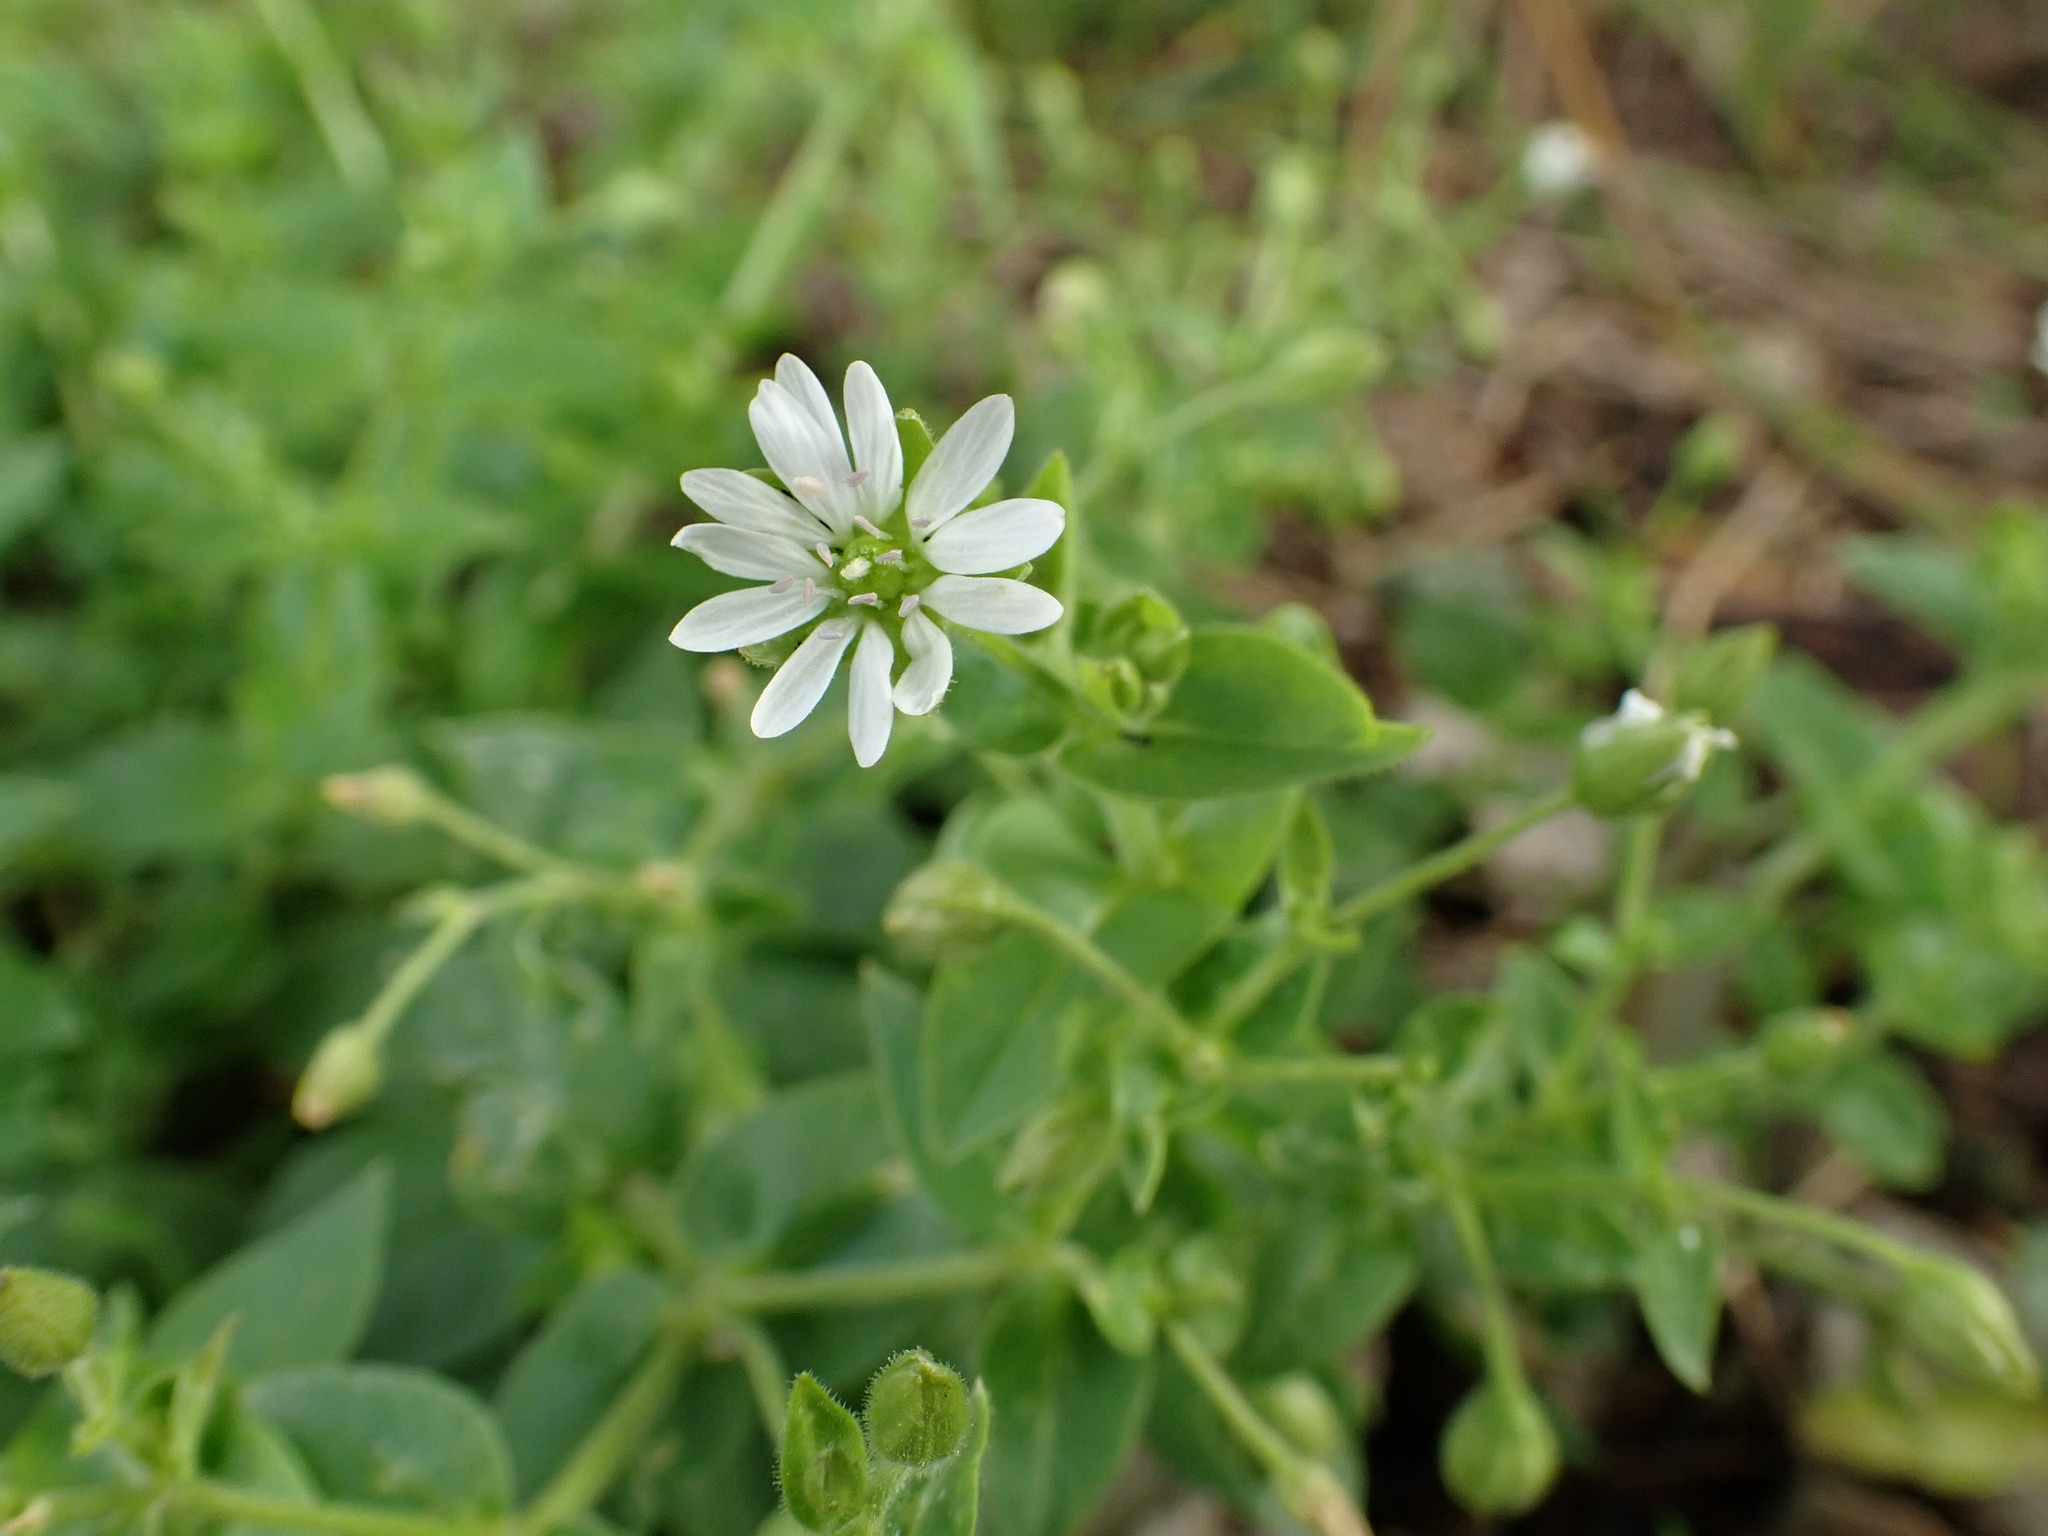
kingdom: Plantae
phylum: Tracheophyta
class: Magnoliopsida
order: Caryophyllales
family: Caryophyllaceae
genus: Stellaria
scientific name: Stellaria aquatica
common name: Water chickweed
